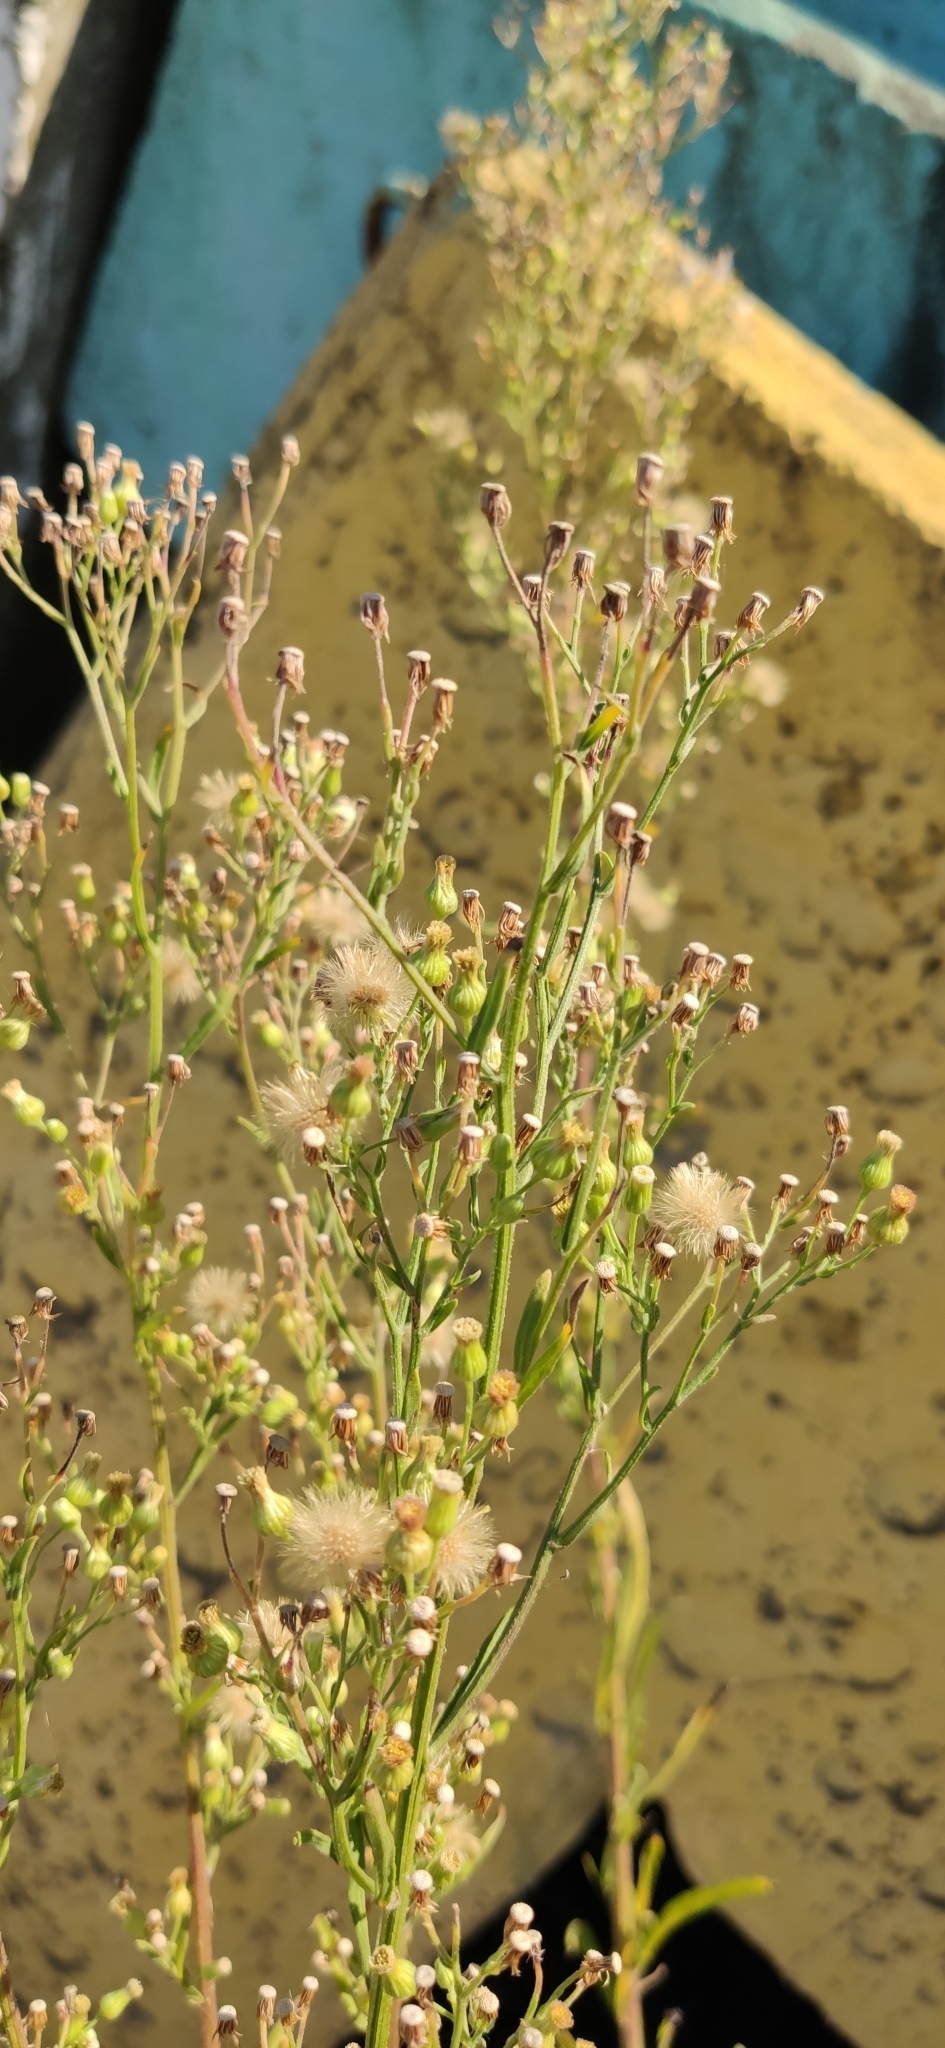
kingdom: Plantae
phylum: Tracheophyta
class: Magnoliopsida
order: Asterales
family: Asteraceae
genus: Erigeron
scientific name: Erigeron canadensis
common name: Canadian fleabane
